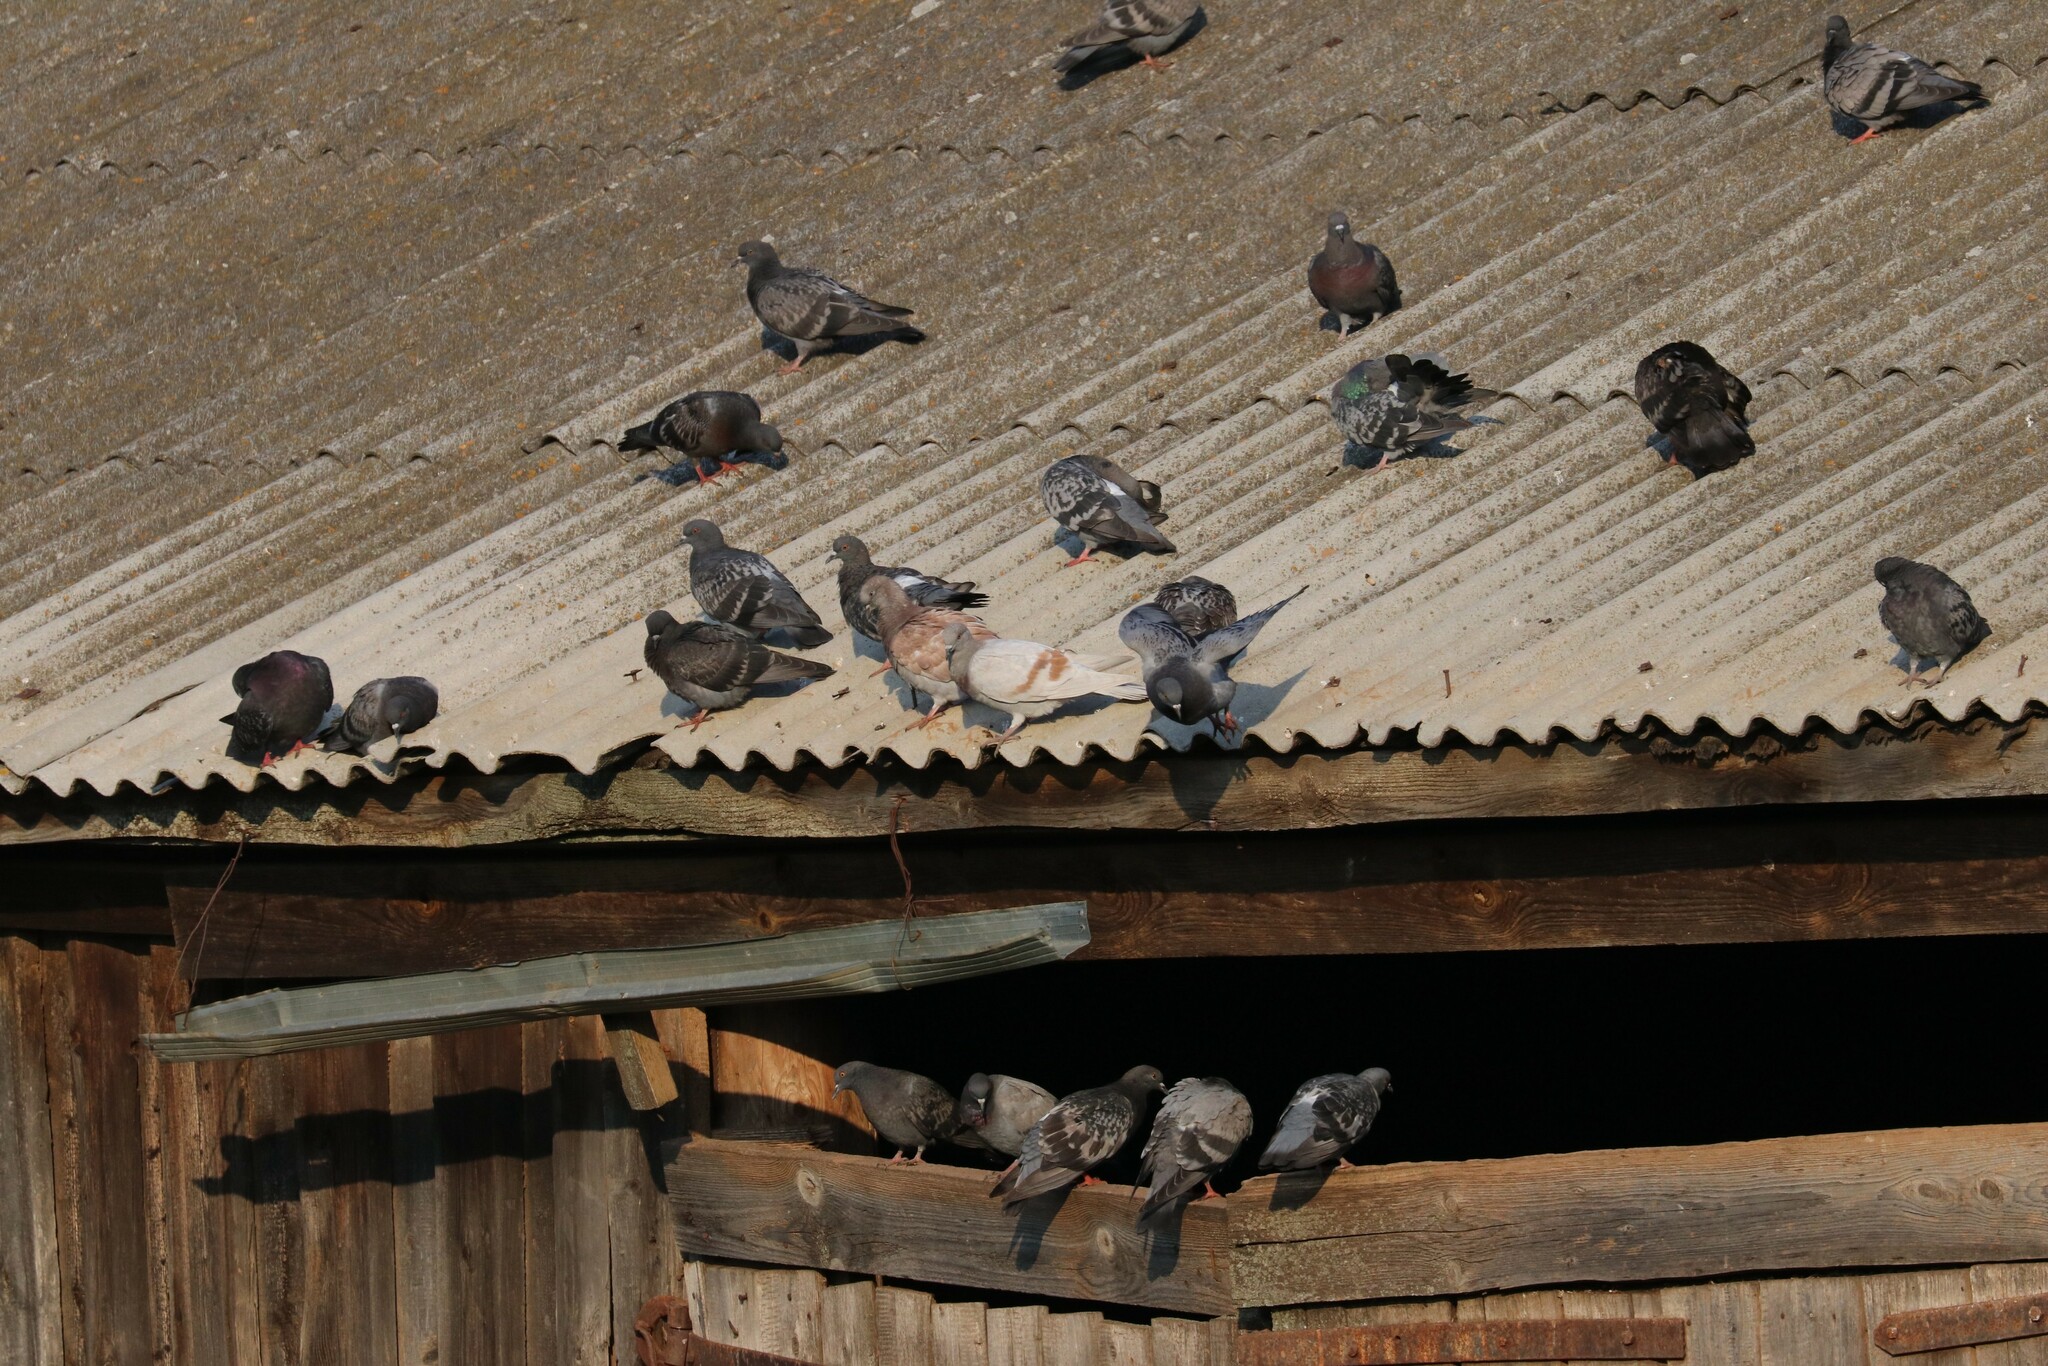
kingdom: Animalia
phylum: Chordata
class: Aves
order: Columbiformes
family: Columbidae
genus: Columba
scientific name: Columba livia
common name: Rock pigeon
